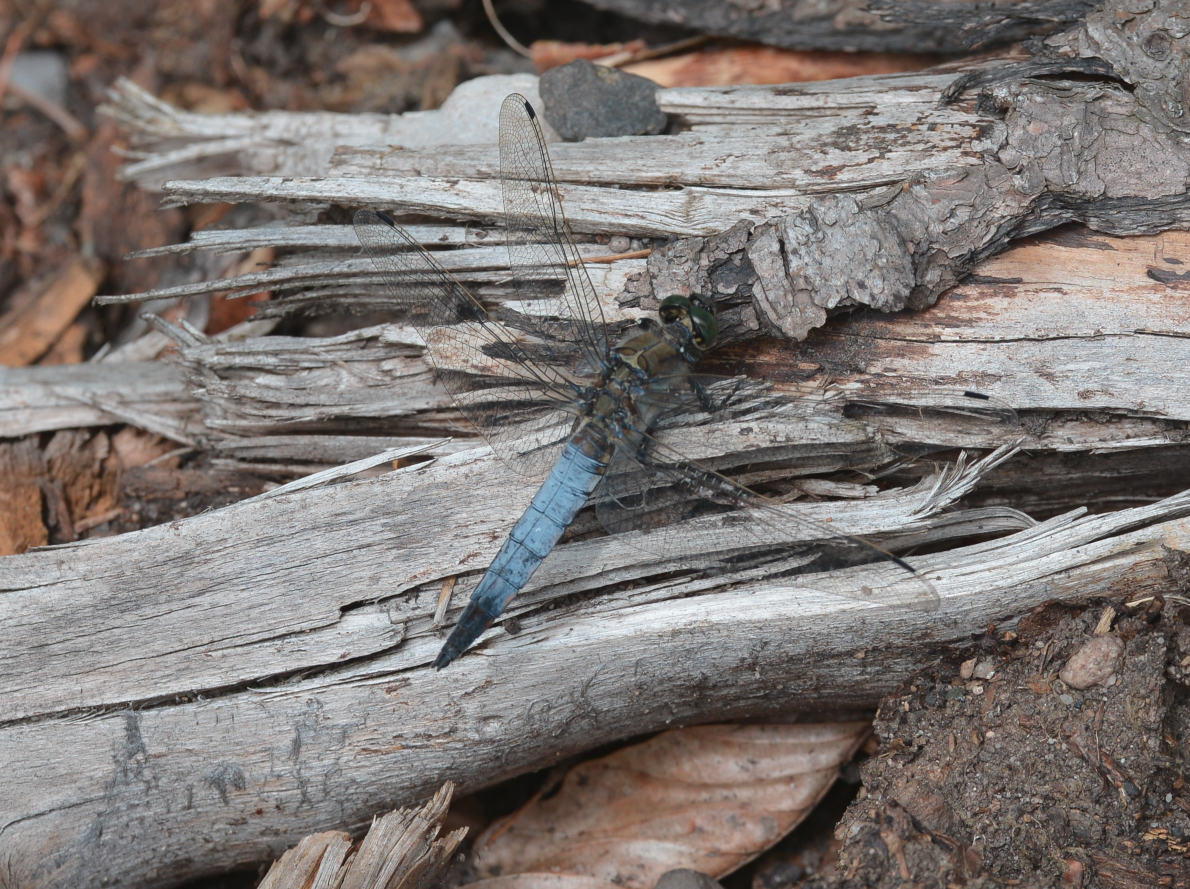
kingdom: Animalia
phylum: Arthropoda
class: Insecta
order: Odonata
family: Libellulidae
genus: Orthetrum
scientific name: Orthetrum cancellatum
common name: Black-tailed skimmer
